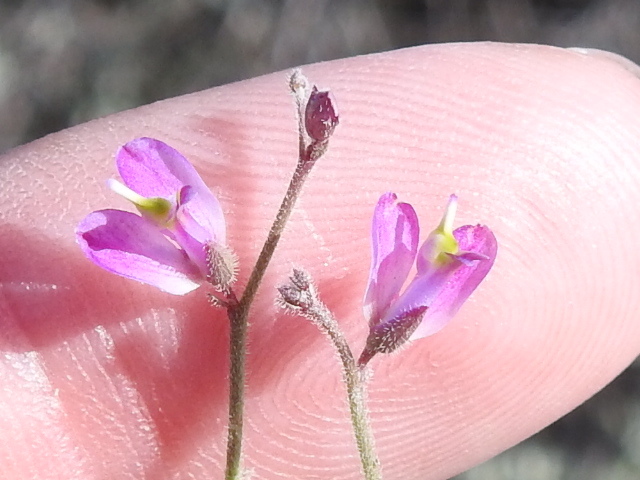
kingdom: Plantae
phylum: Tracheophyta
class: Magnoliopsida
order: Fabales
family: Polygalaceae
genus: Rhinotropis
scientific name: Rhinotropis lindheimeri
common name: Shrubby milkwort
